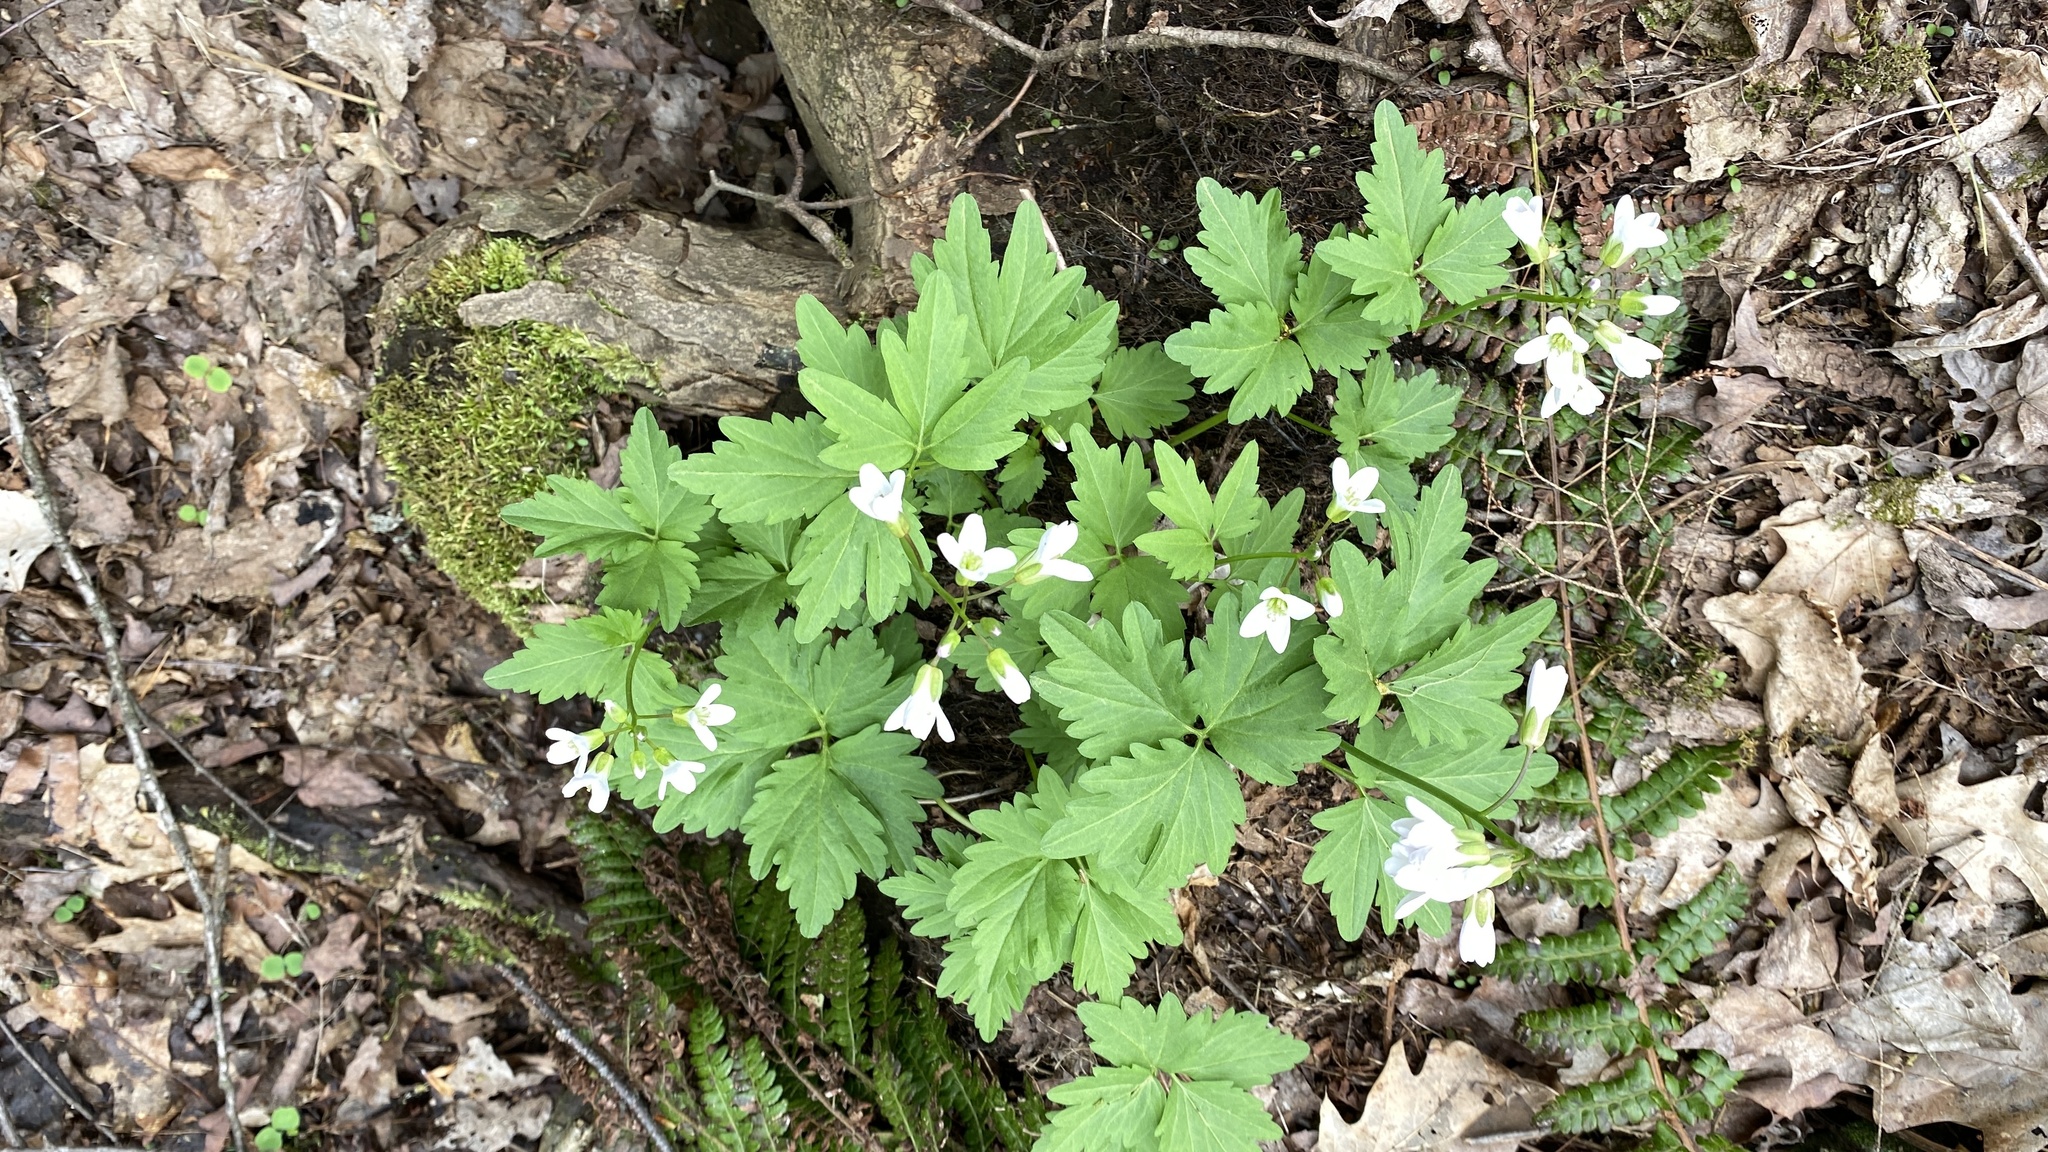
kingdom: Plantae
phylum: Tracheophyta
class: Magnoliopsida
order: Brassicales
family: Brassicaceae
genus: Cardamine
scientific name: Cardamine diphylla
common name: Broad-leaved toothwort
